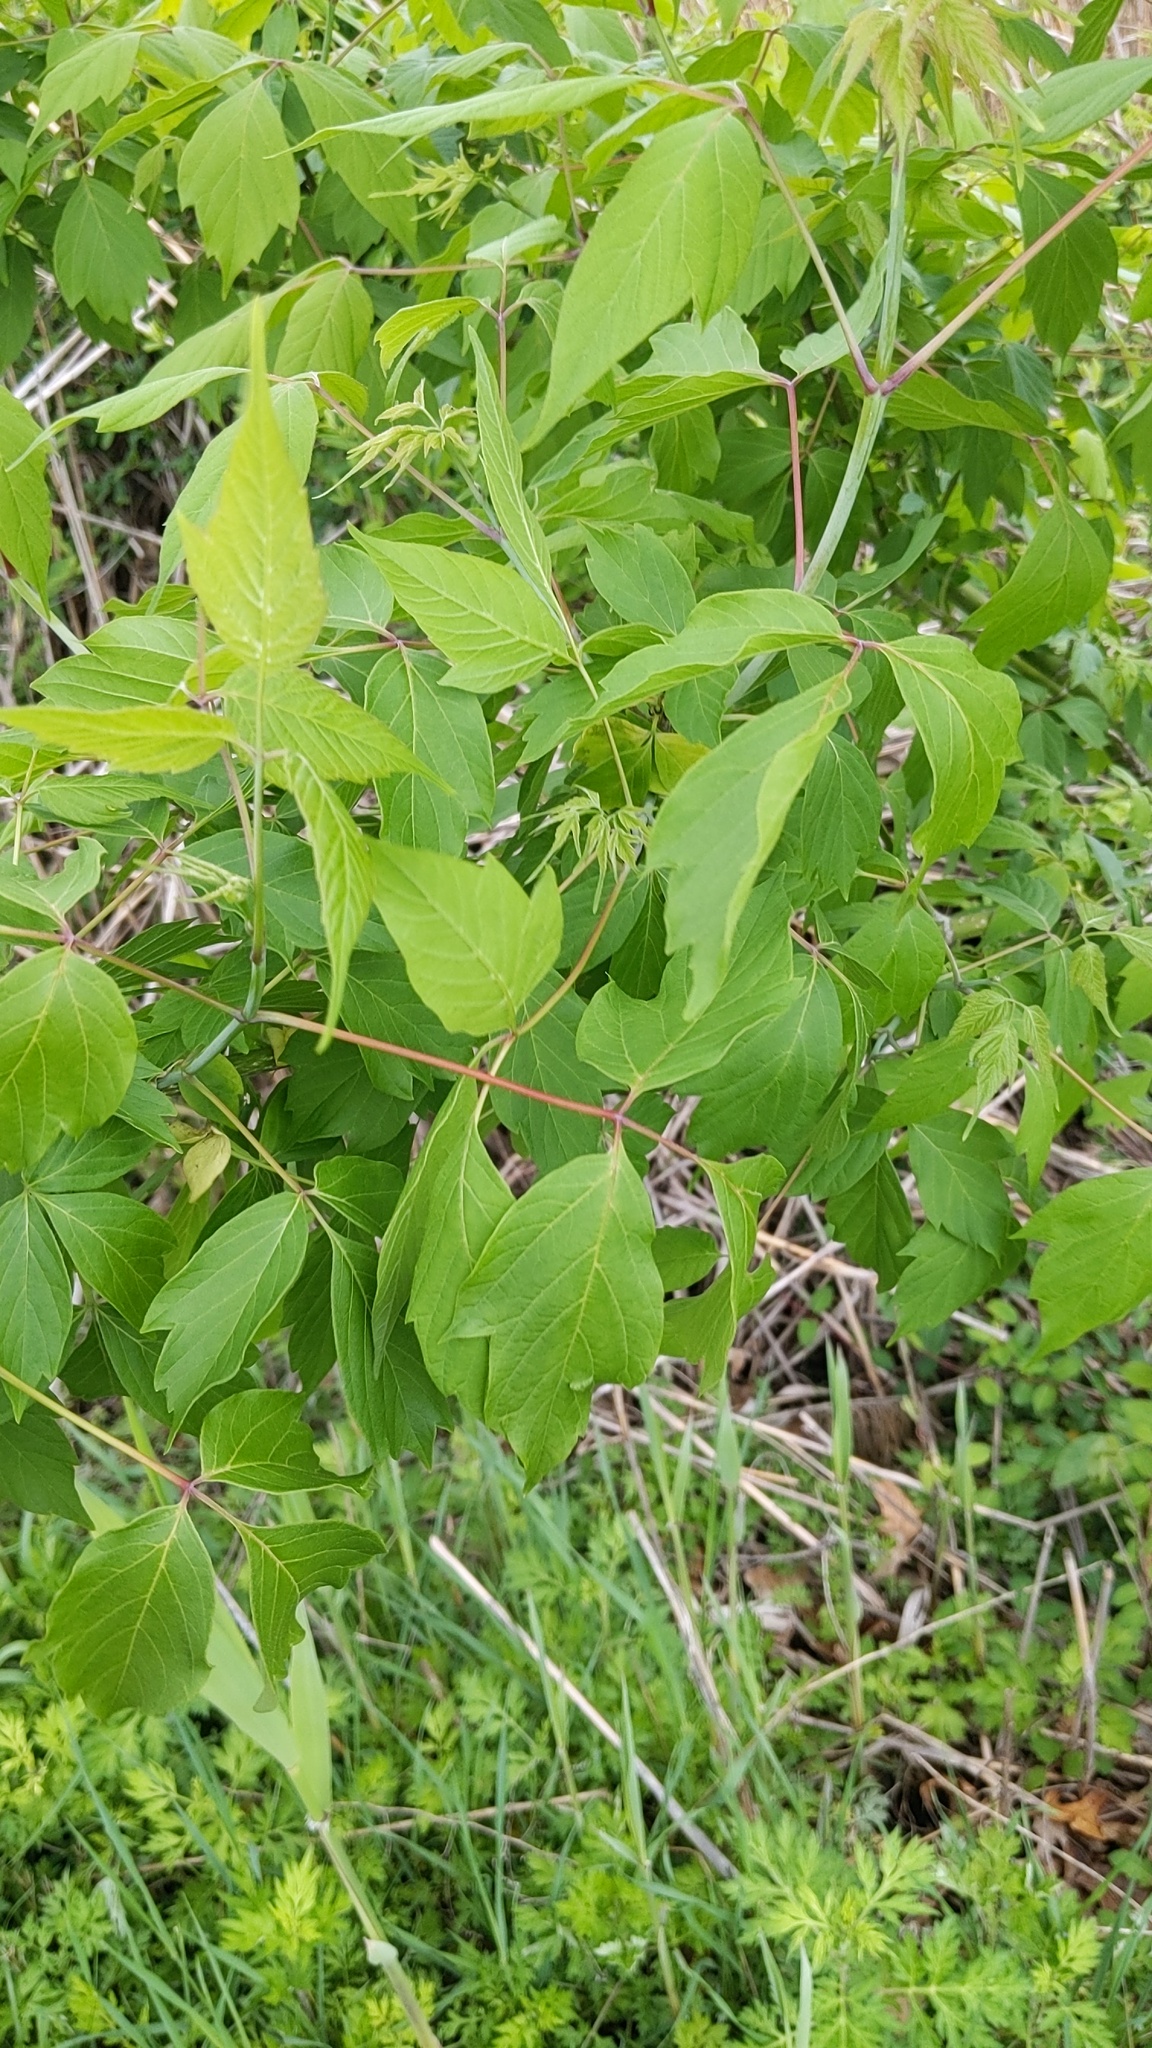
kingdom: Plantae
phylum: Tracheophyta
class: Magnoliopsida
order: Sapindales
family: Sapindaceae
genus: Acer
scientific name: Acer negundo
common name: Ashleaf maple
